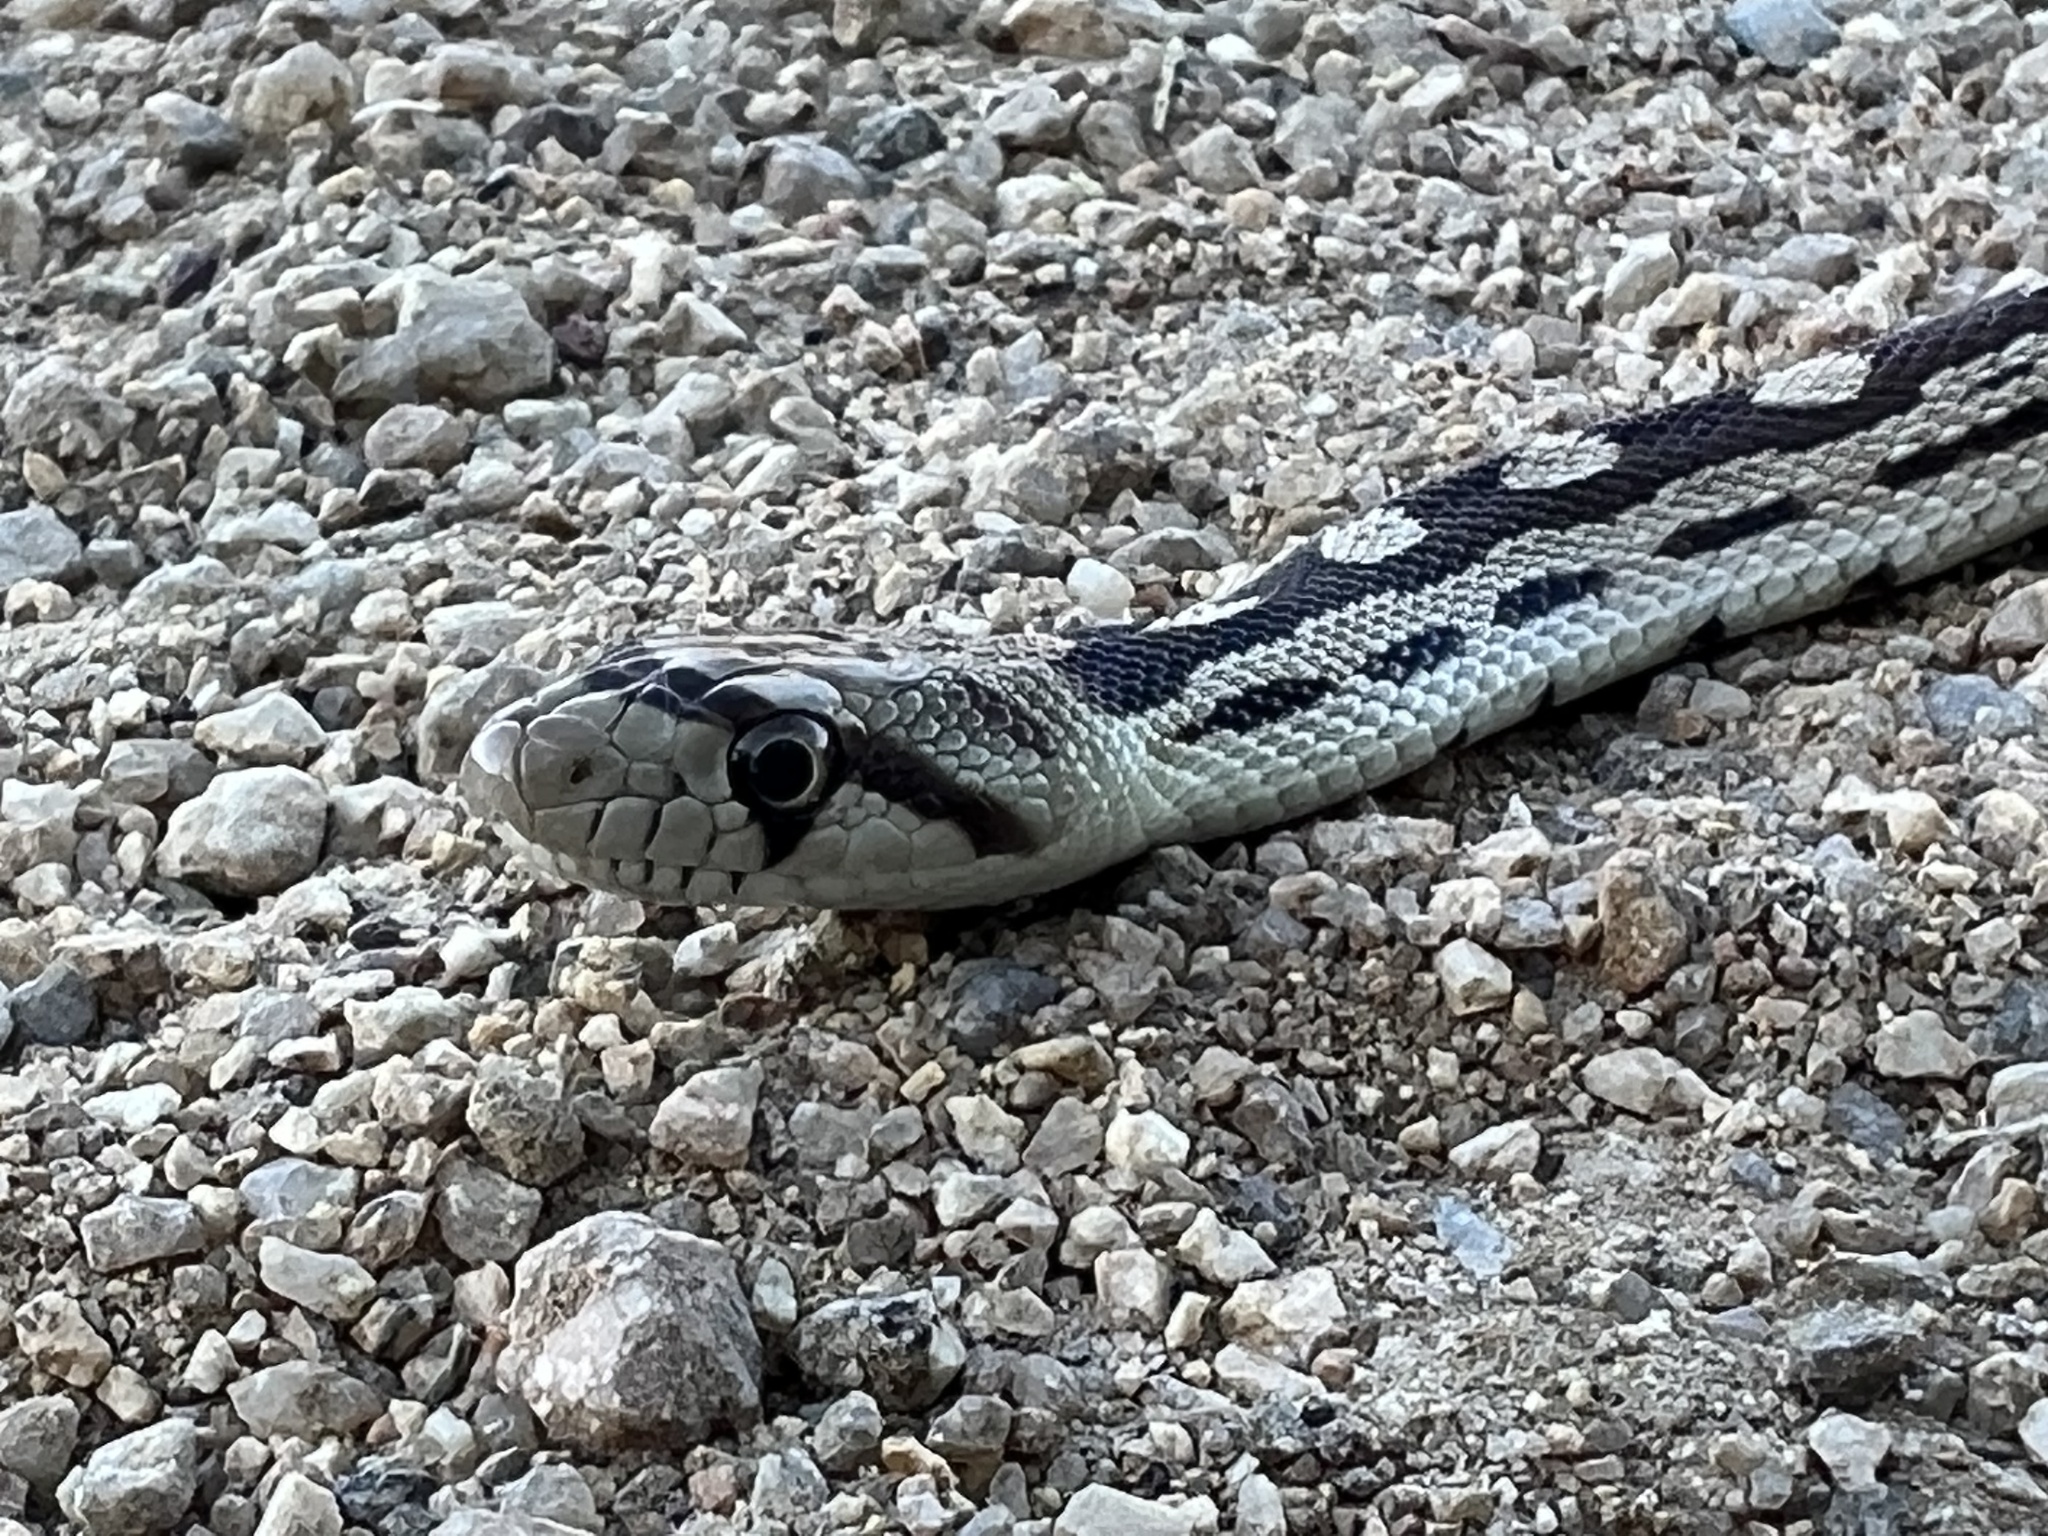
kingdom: Animalia
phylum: Chordata
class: Squamata
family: Colubridae
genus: Pituophis
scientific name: Pituophis catenifer
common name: Gopher snake
